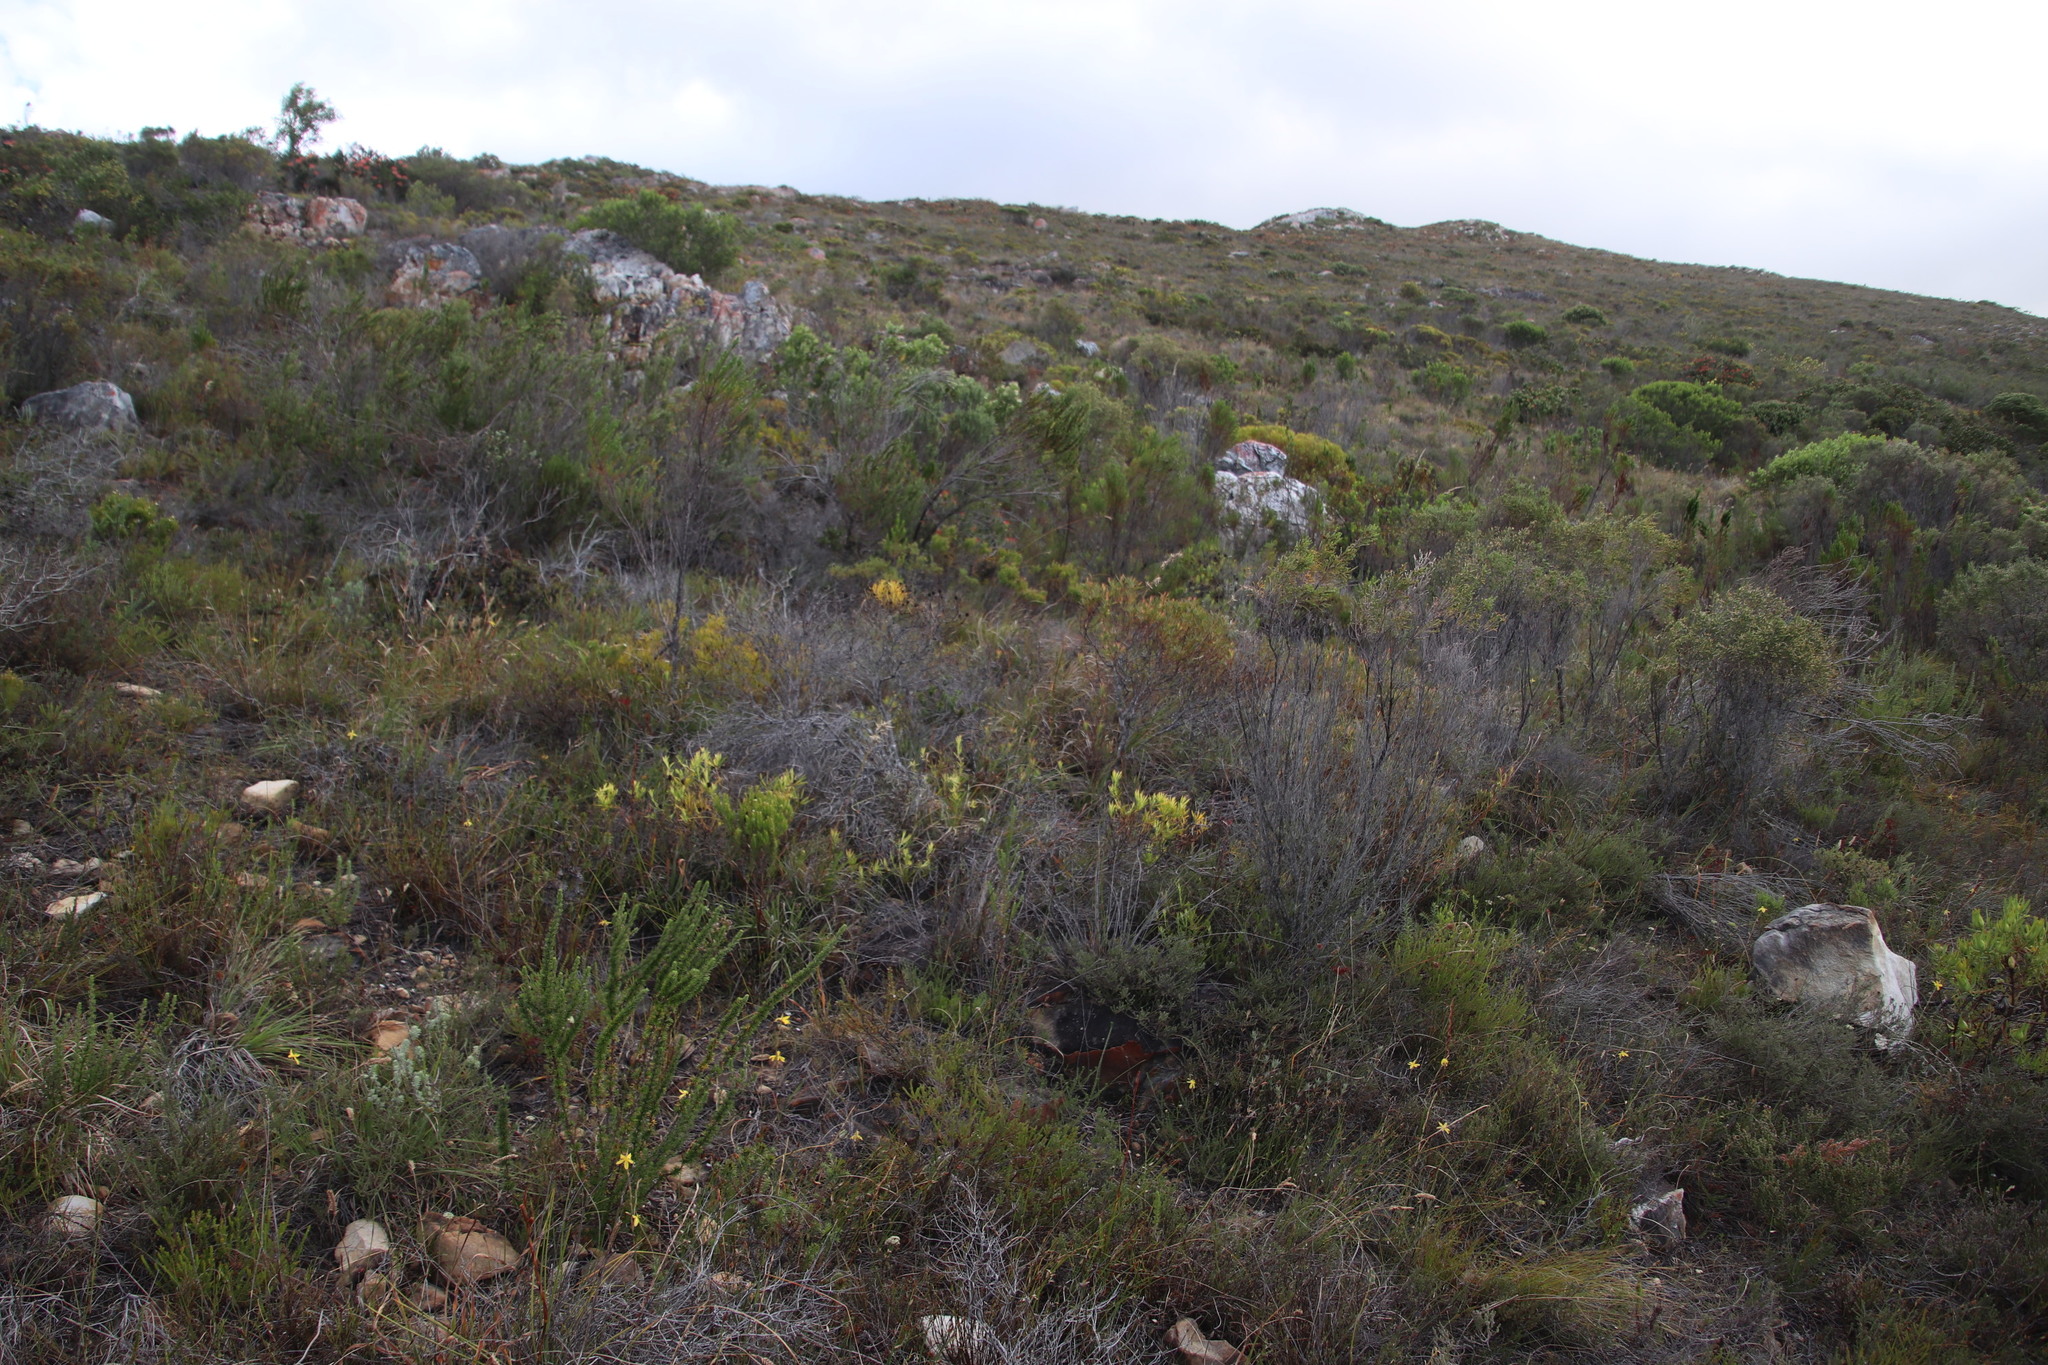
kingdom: Plantae
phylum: Tracheophyta
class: Magnoliopsida
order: Proteales
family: Proteaceae
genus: Leucadendron
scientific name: Leucadendron salignum
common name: Common sunshine conebush
